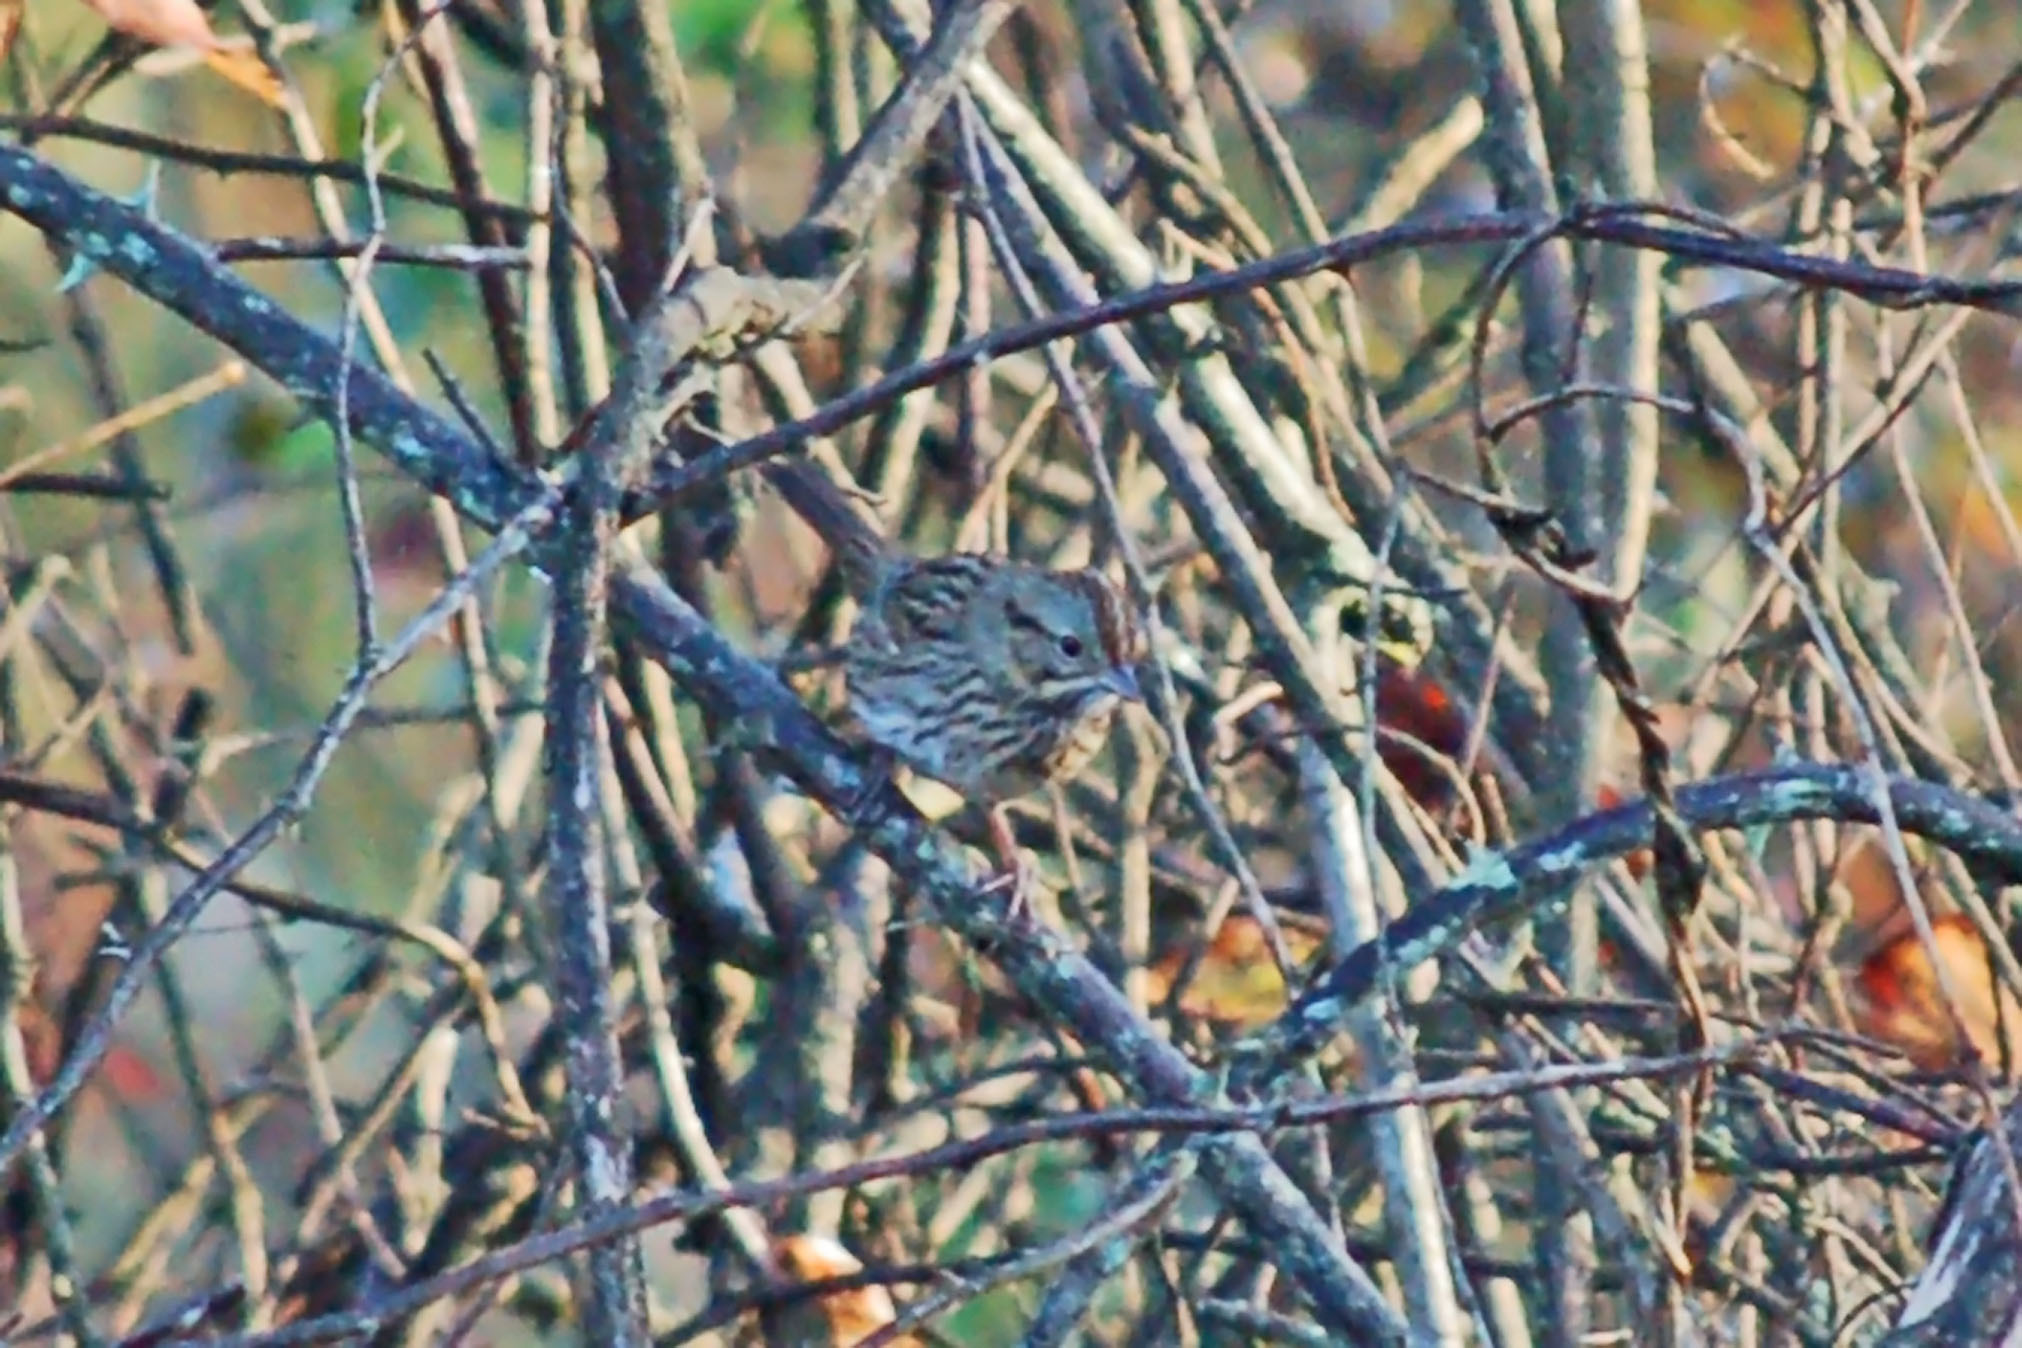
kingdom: Animalia
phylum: Chordata
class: Aves
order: Passeriformes
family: Passerellidae
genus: Melospiza
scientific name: Melospiza lincolnii
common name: Lincoln's sparrow
